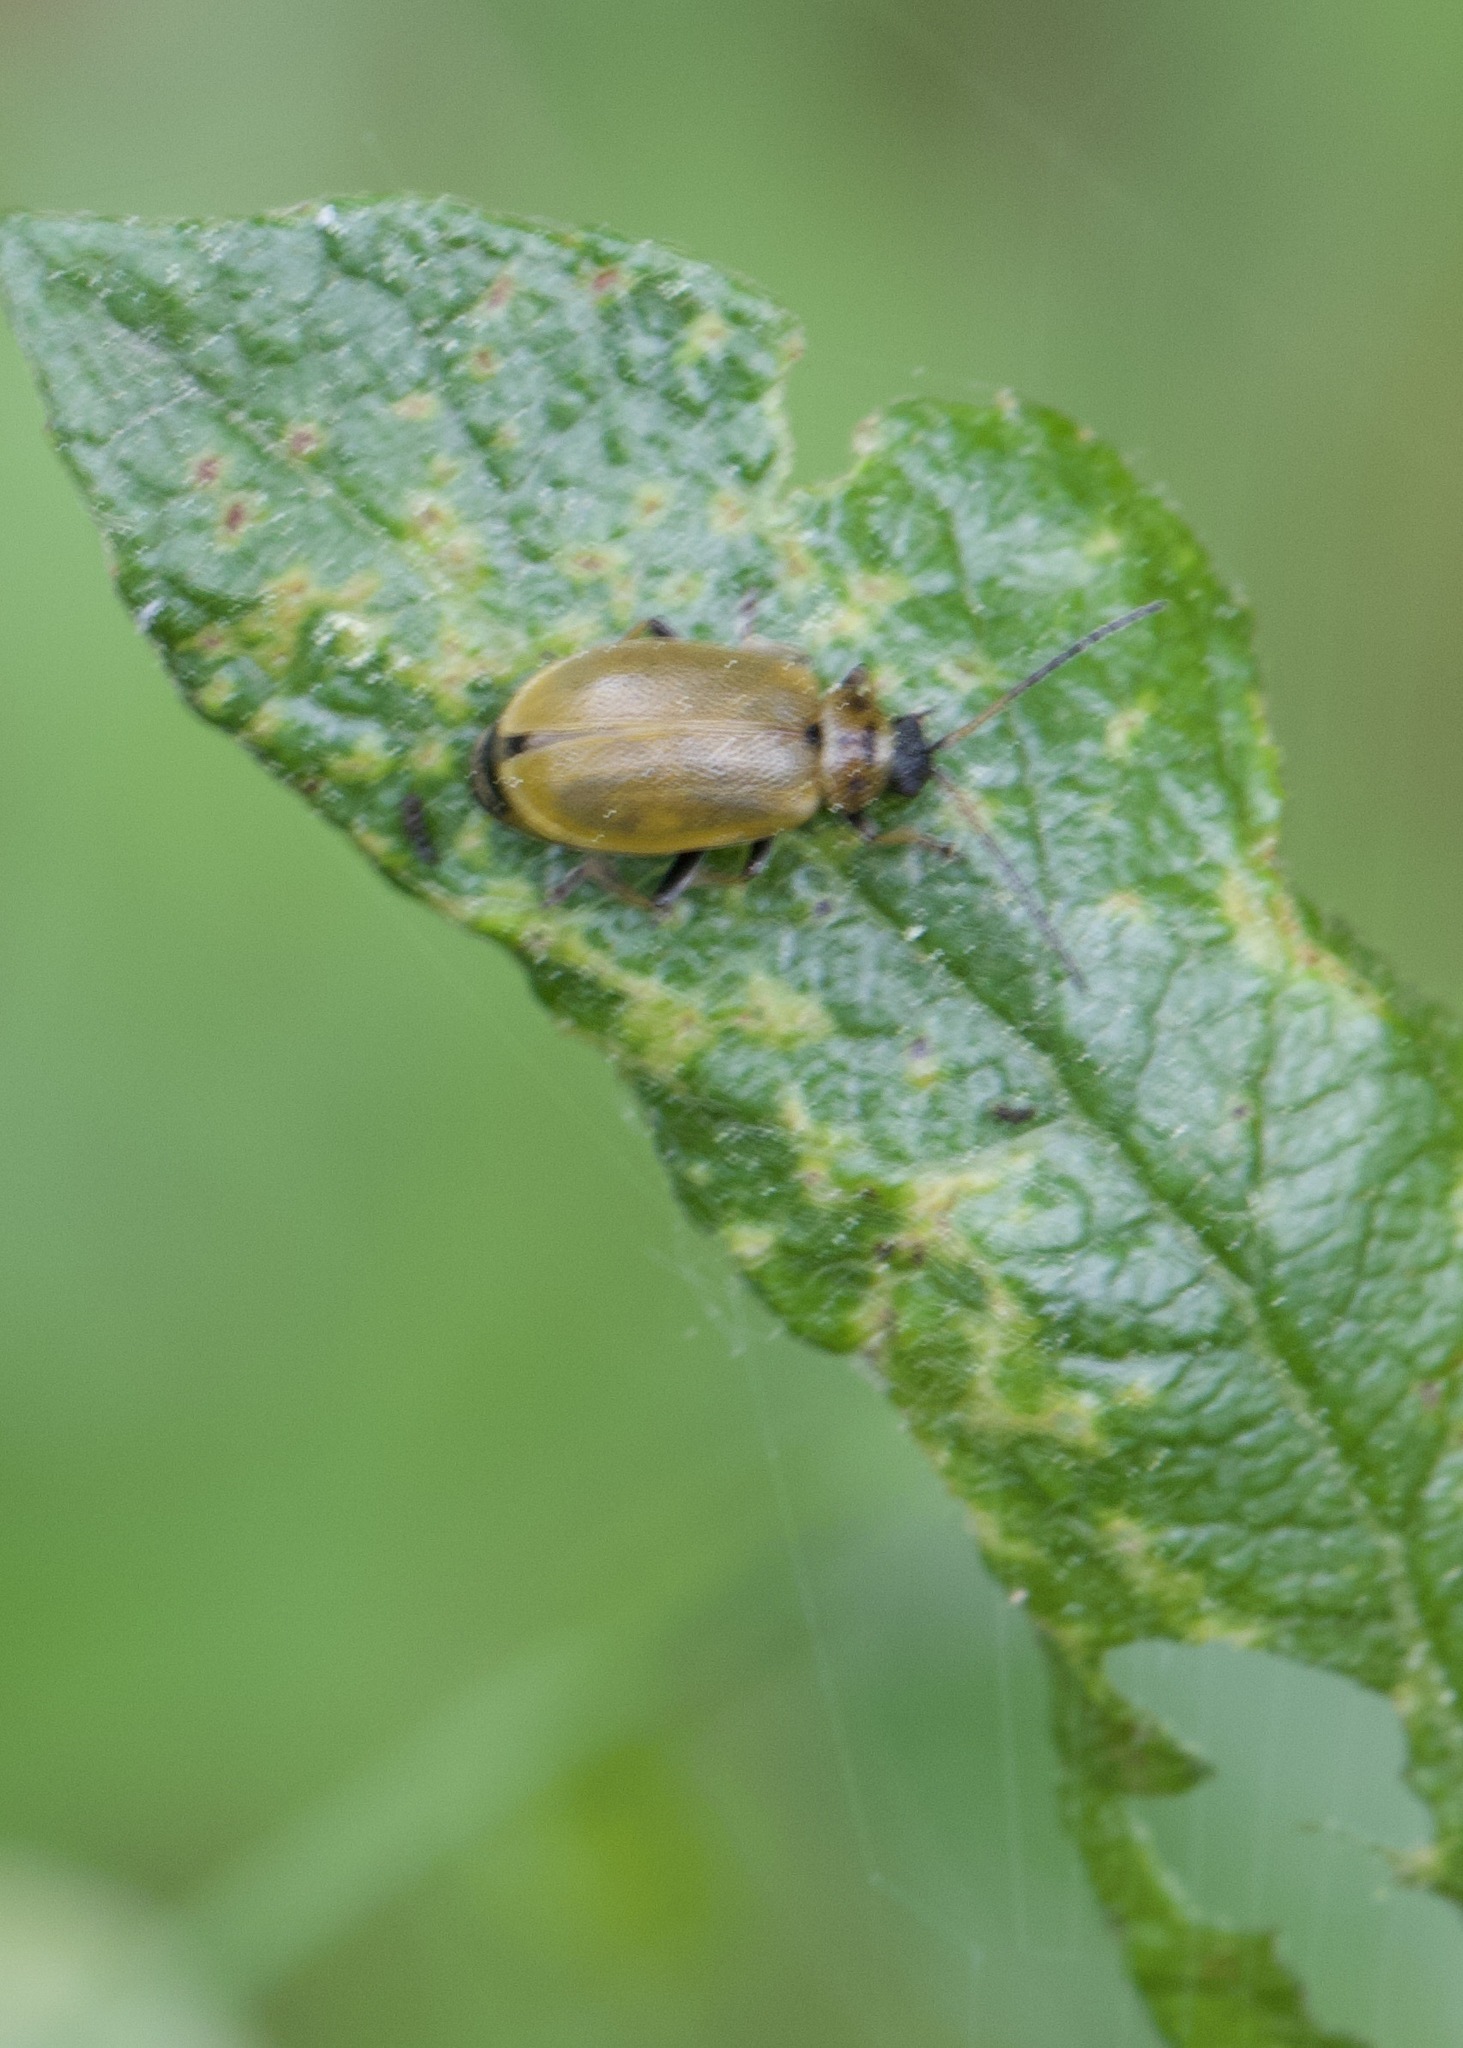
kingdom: Animalia
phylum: Arthropoda
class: Insecta
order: Coleoptera
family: Chrysomelidae
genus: Lochmaea
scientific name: Lochmaea caprea
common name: Willow leaf beetle
